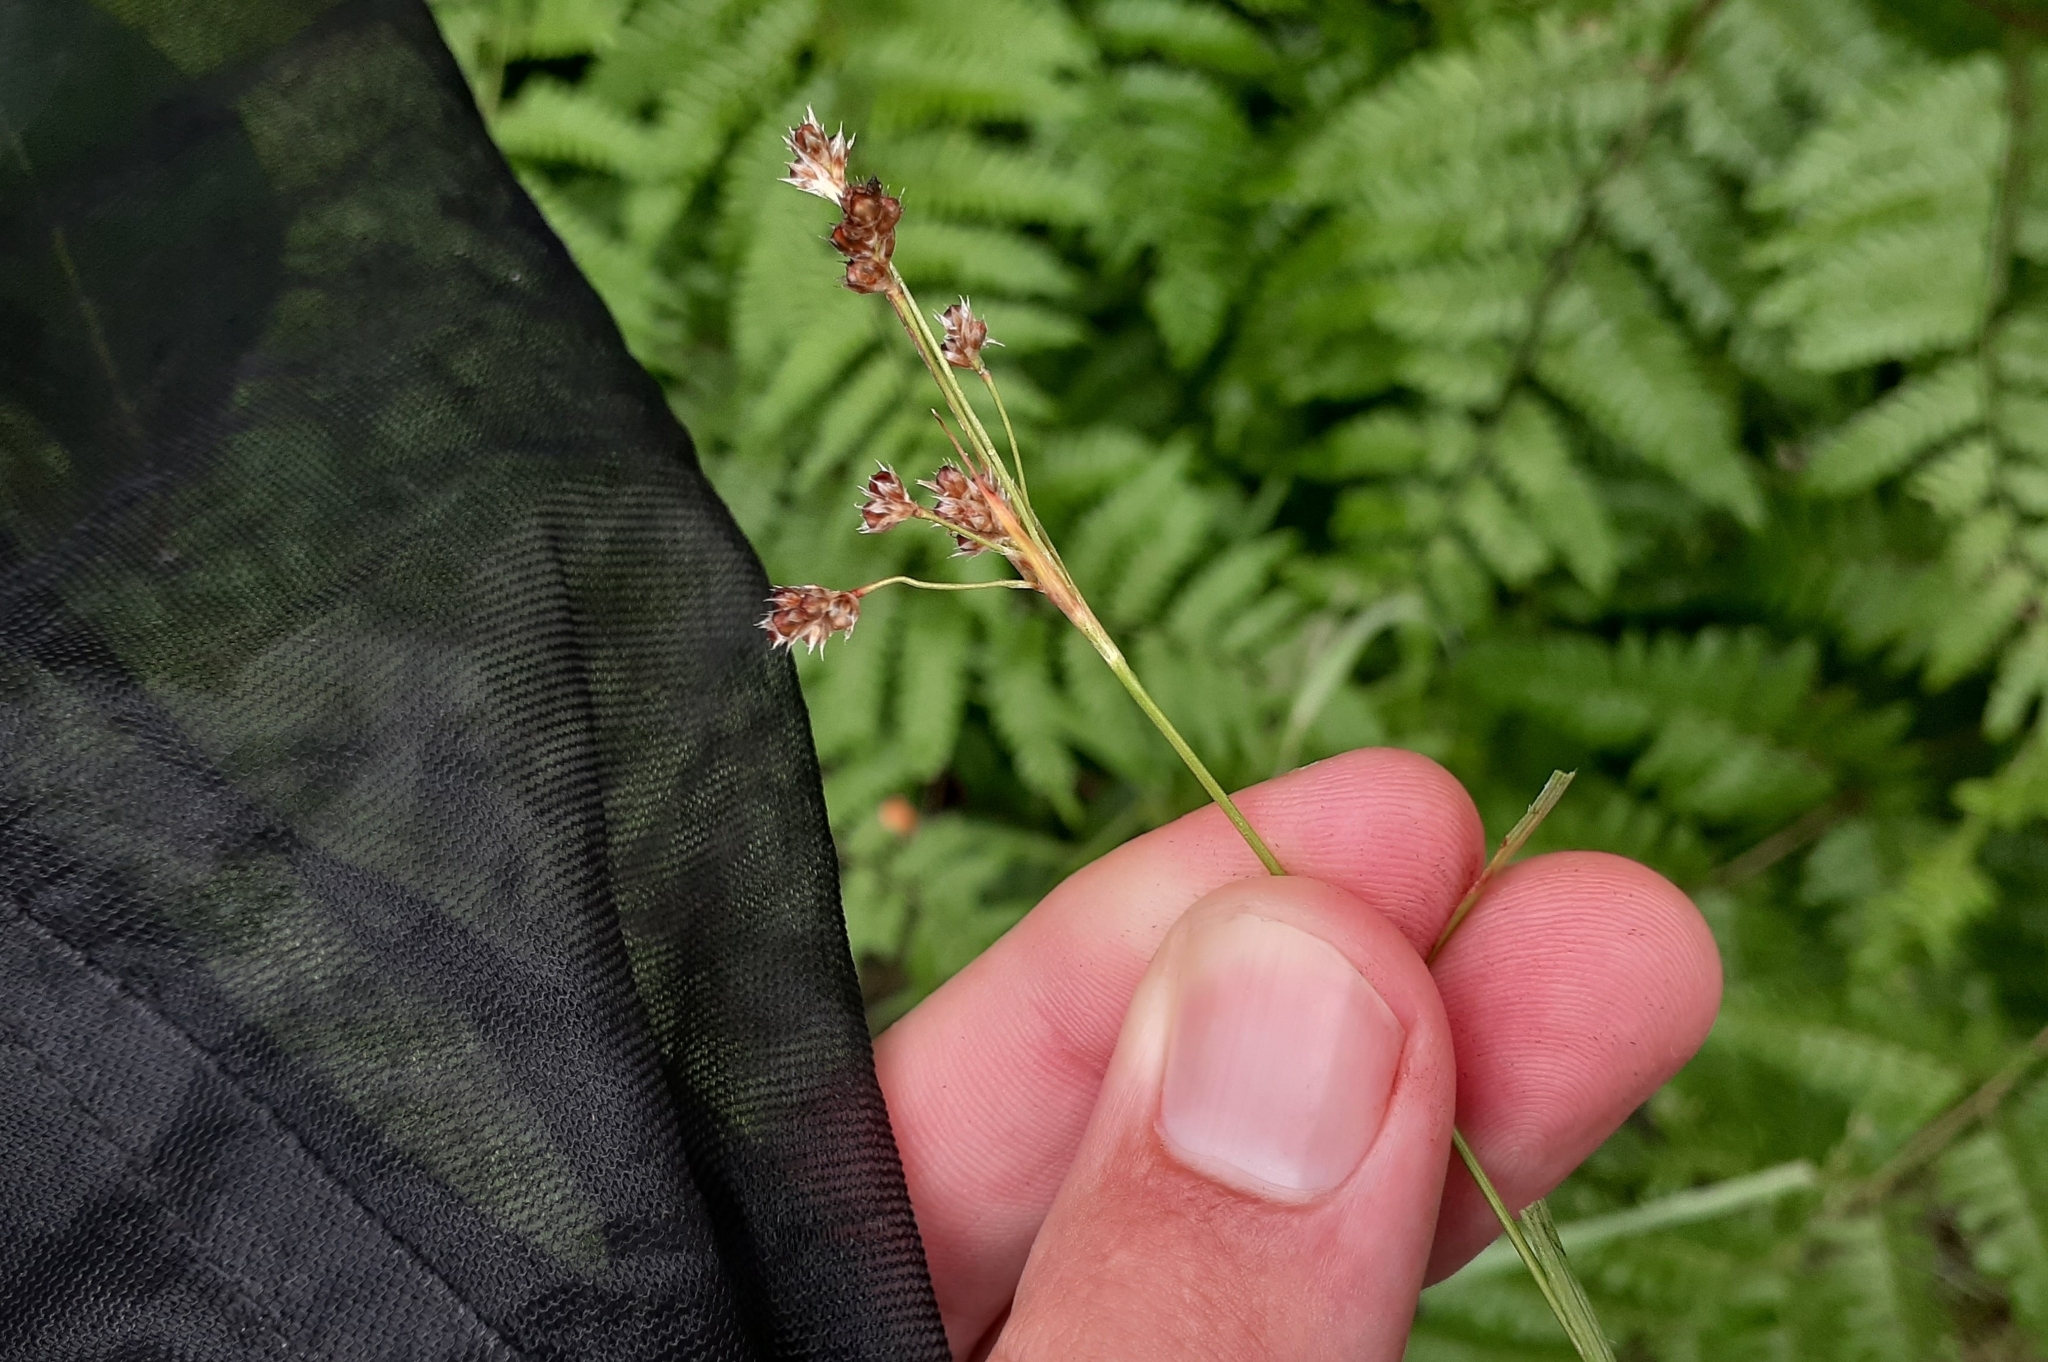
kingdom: Plantae
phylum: Tracheophyta
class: Liliopsida
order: Poales
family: Juncaceae
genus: Luzula
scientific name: Luzula multiflora
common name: Heath wood-rush
